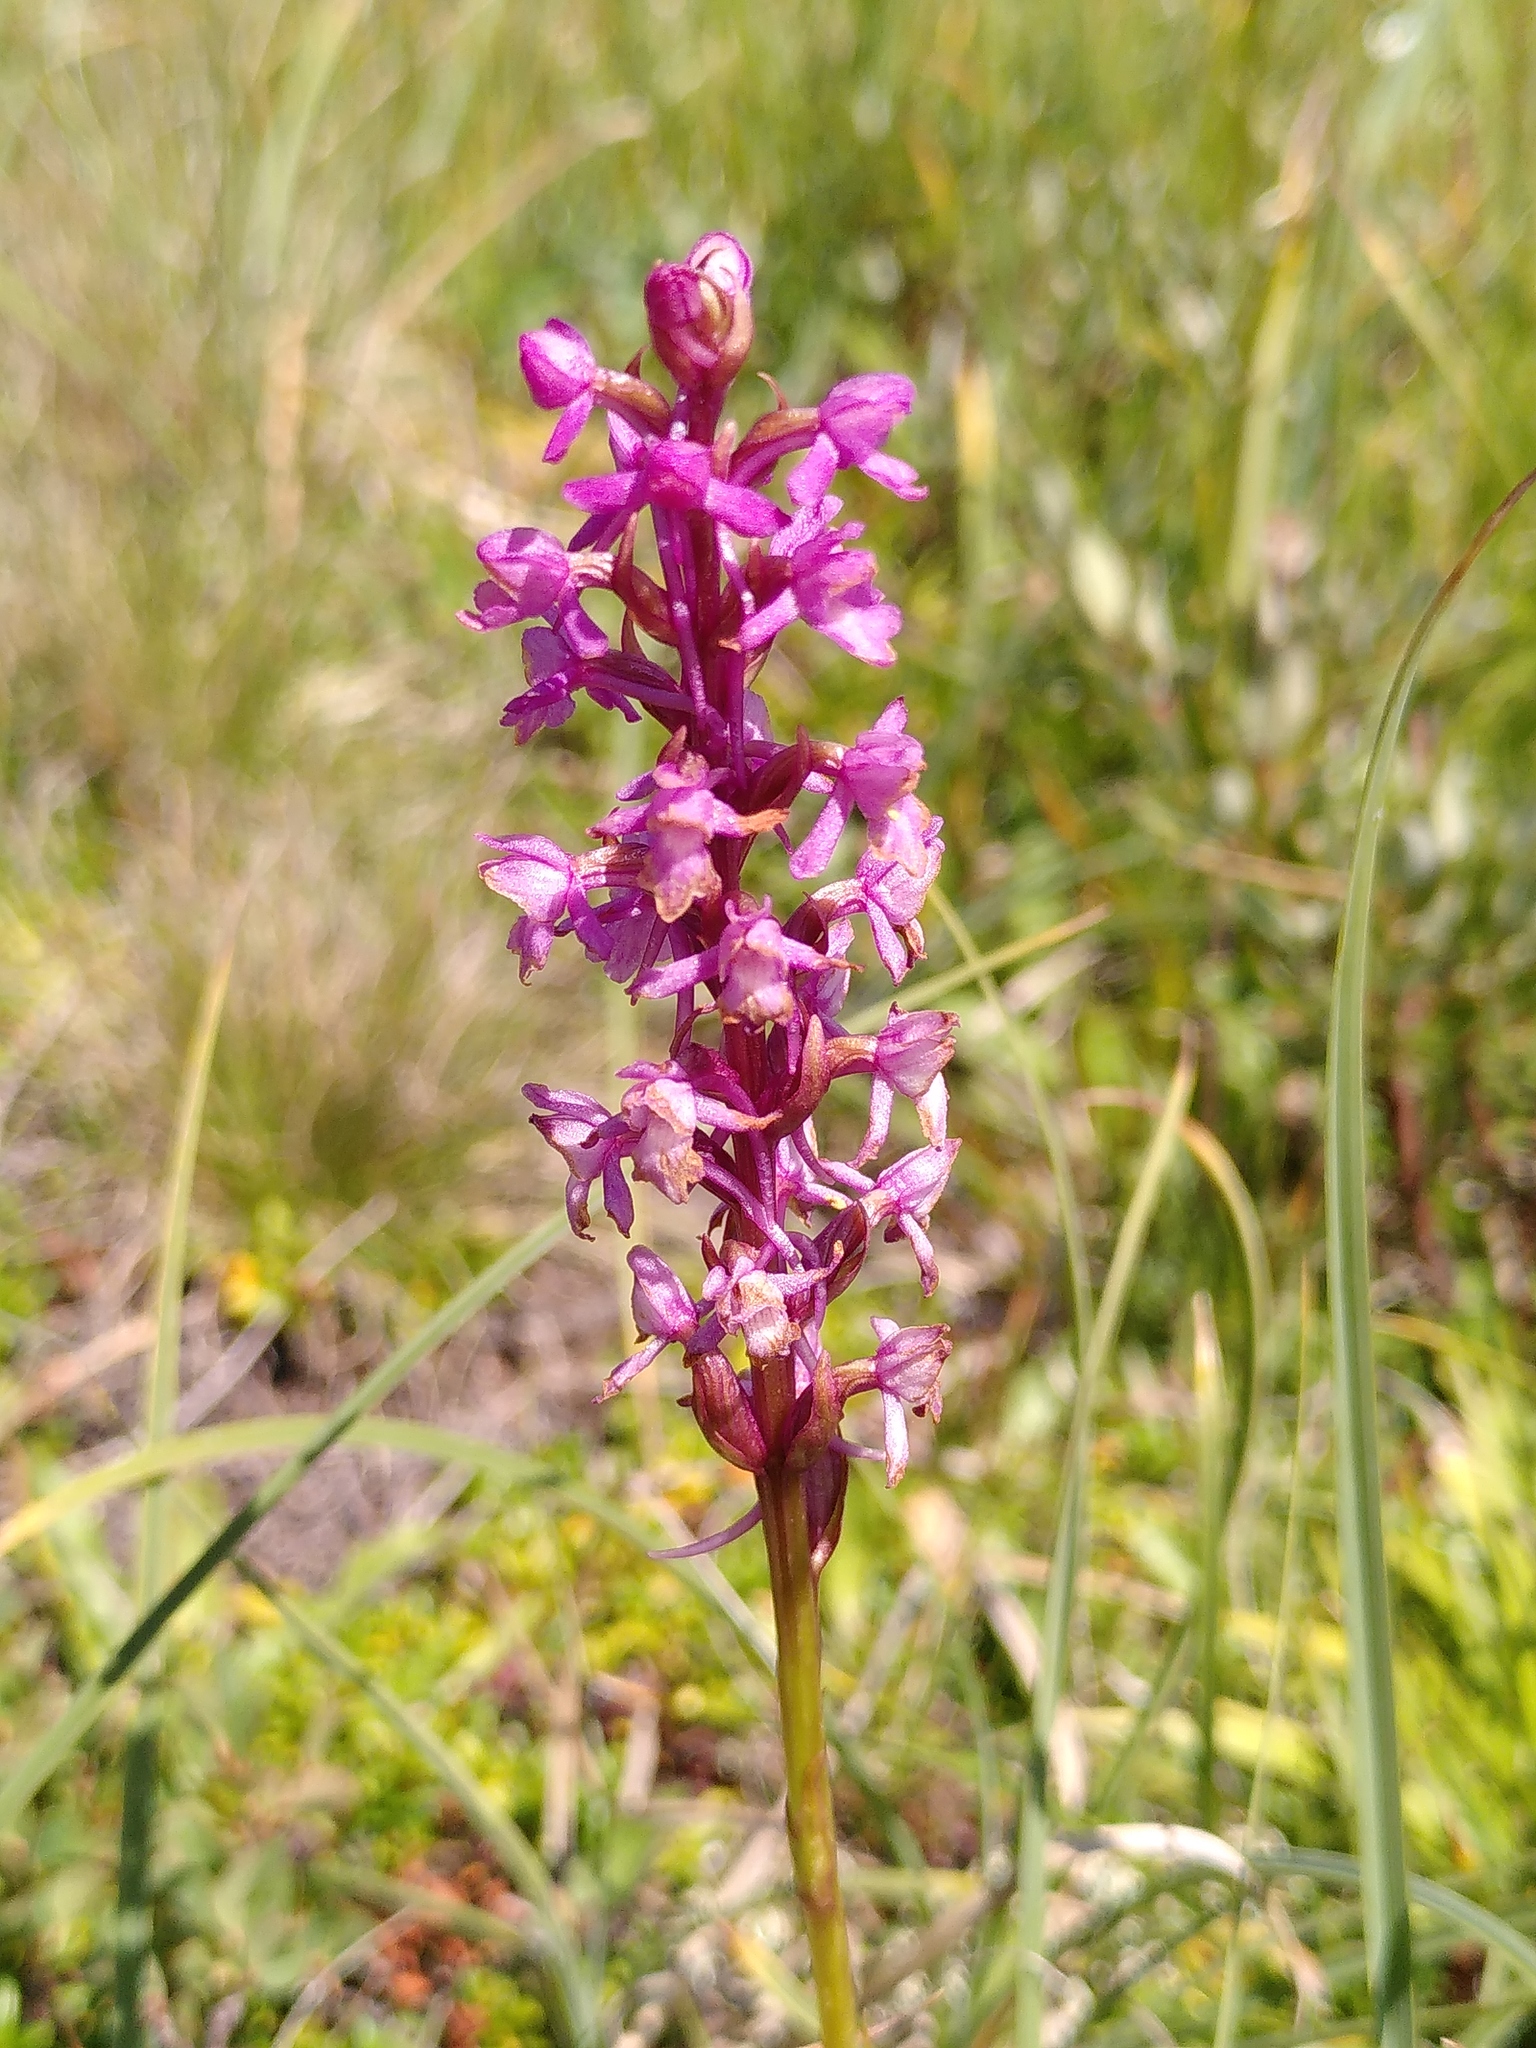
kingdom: Plantae
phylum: Tracheophyta
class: Liliopsida
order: Asparagales
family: Orchidaceae
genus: Gymnadenia
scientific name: Gymnadenia conopsea
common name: Fragrant orchid
